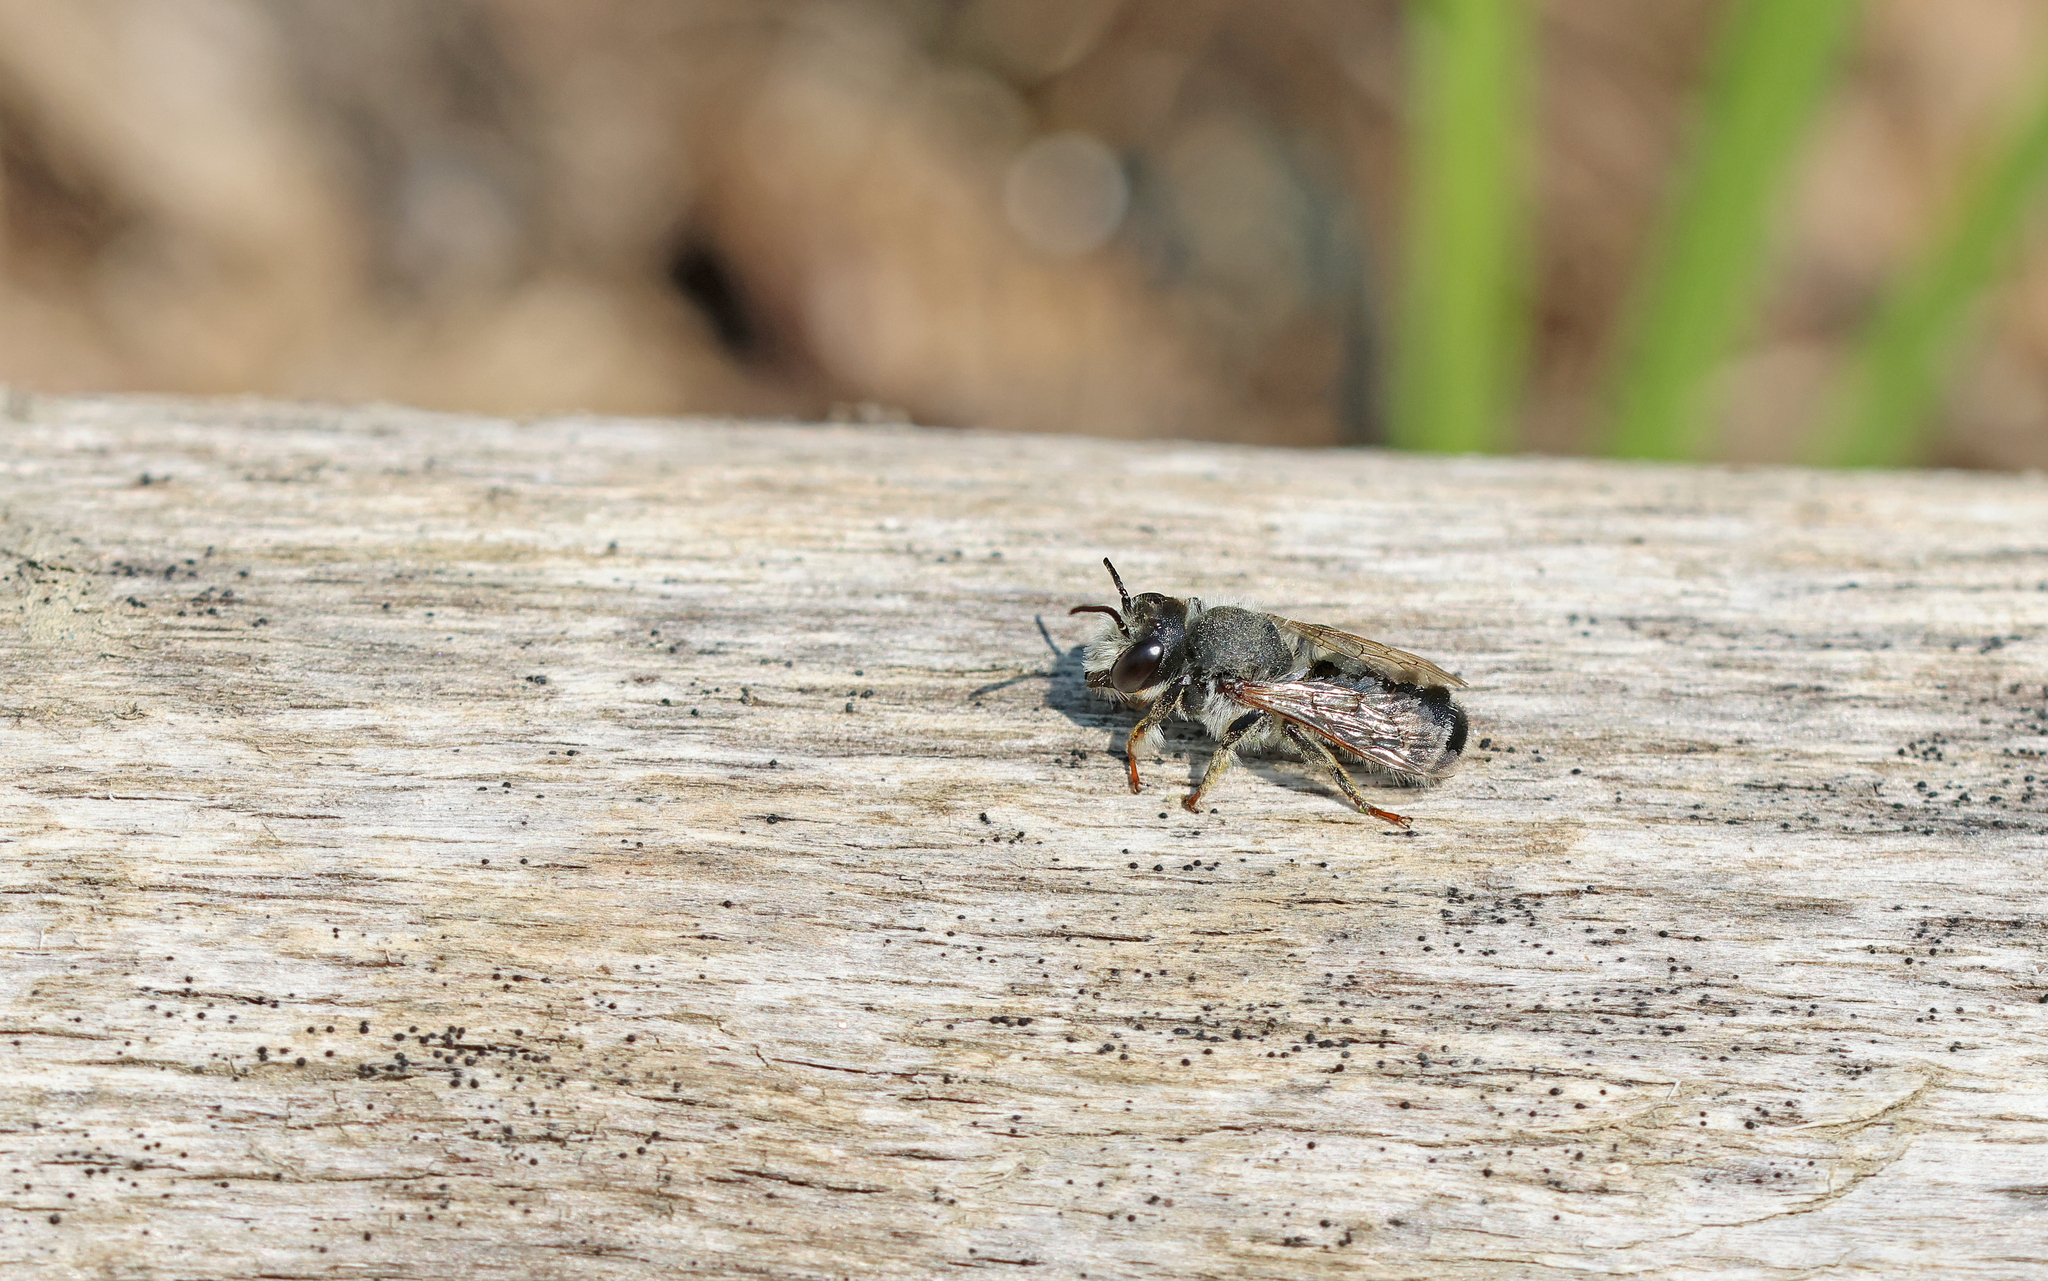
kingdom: Animalia
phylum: Arthropoda
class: Insecta
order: Hymenoptera
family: Megachilidae
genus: Megachile
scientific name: Megachile ericetorum
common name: Leafcutter bee
